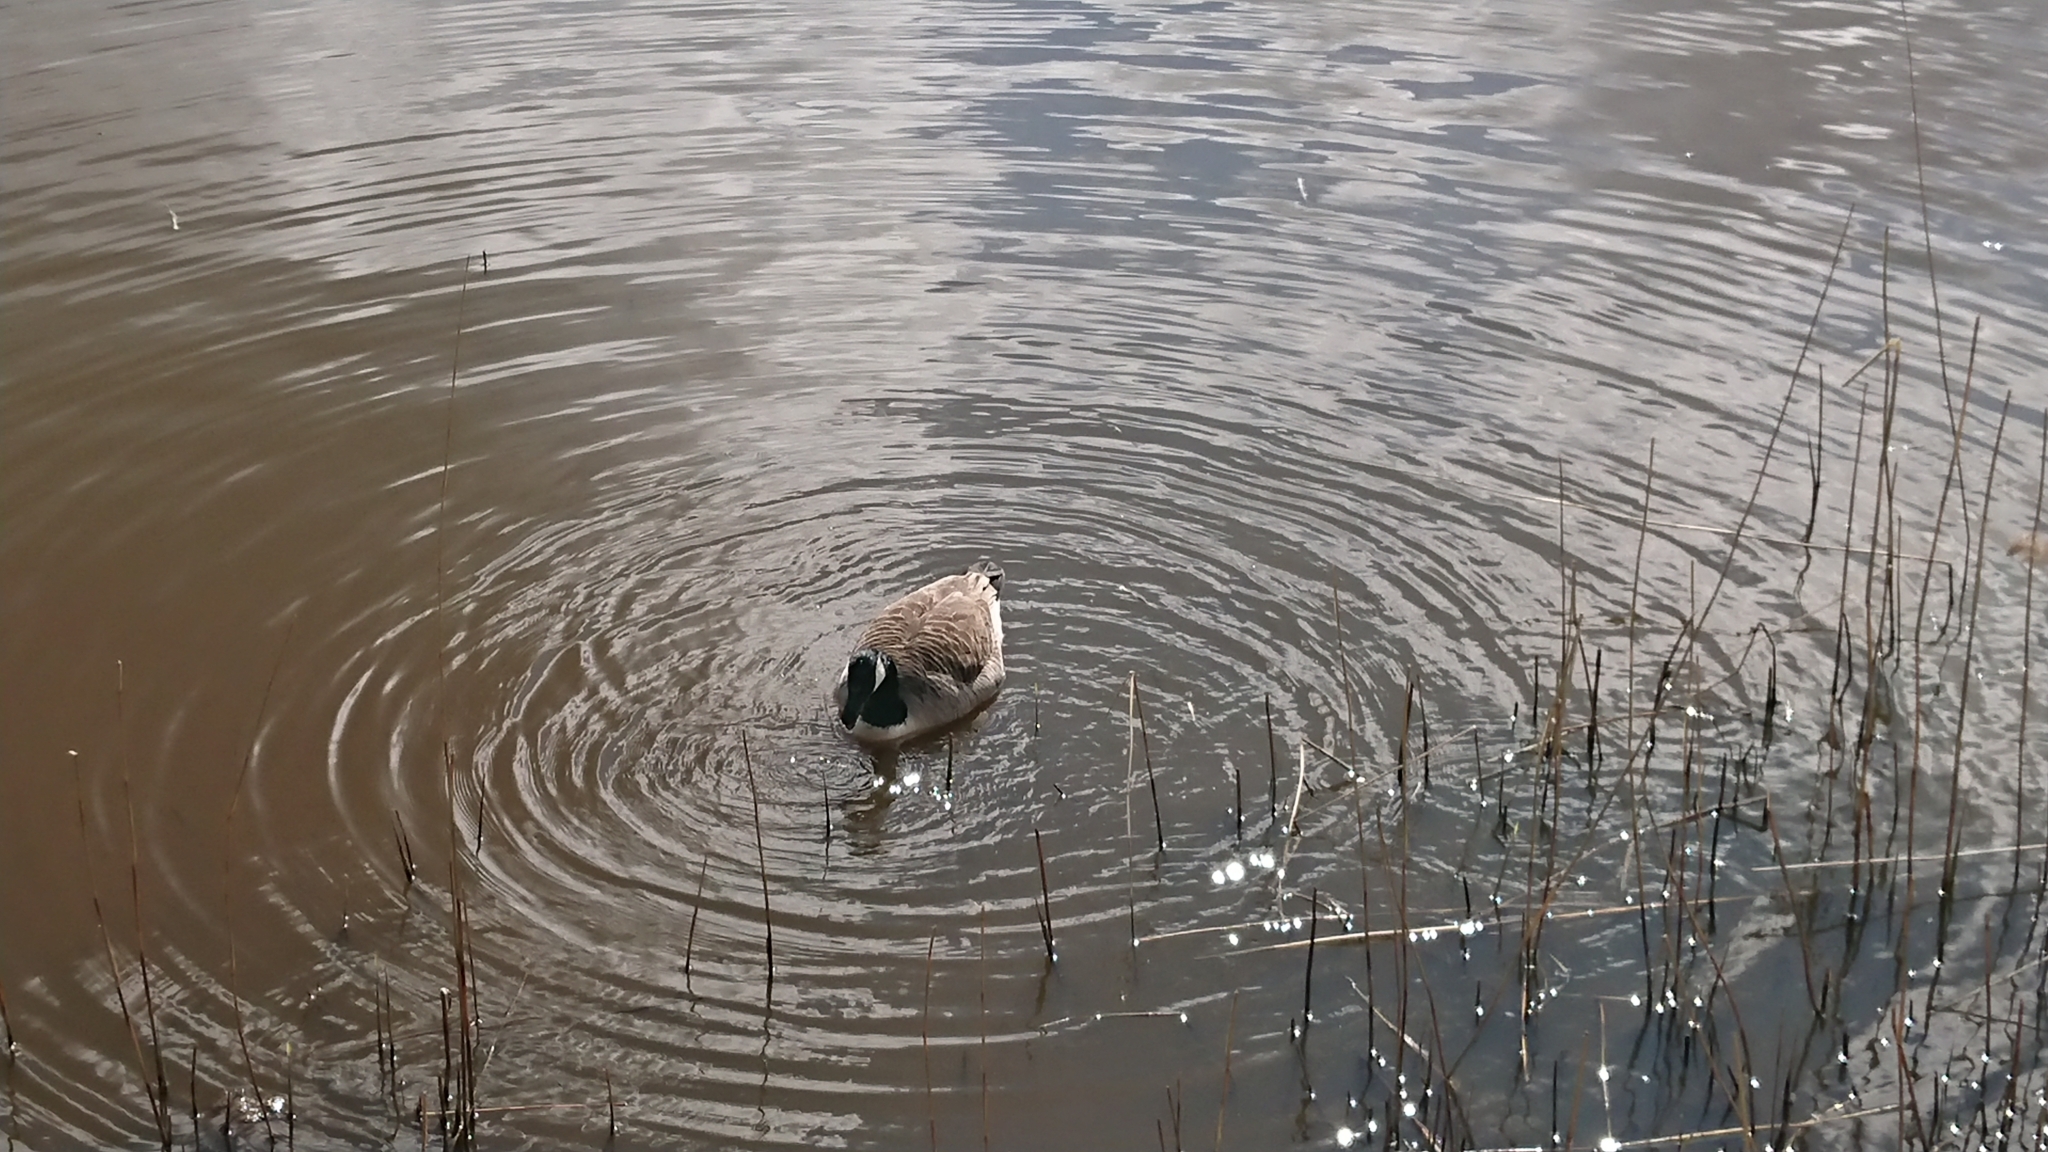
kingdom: Animalia
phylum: Chordata
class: Aves
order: Anseriformes
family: Anatidae
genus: Branta
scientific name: Branta canadensis
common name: Canada goose
